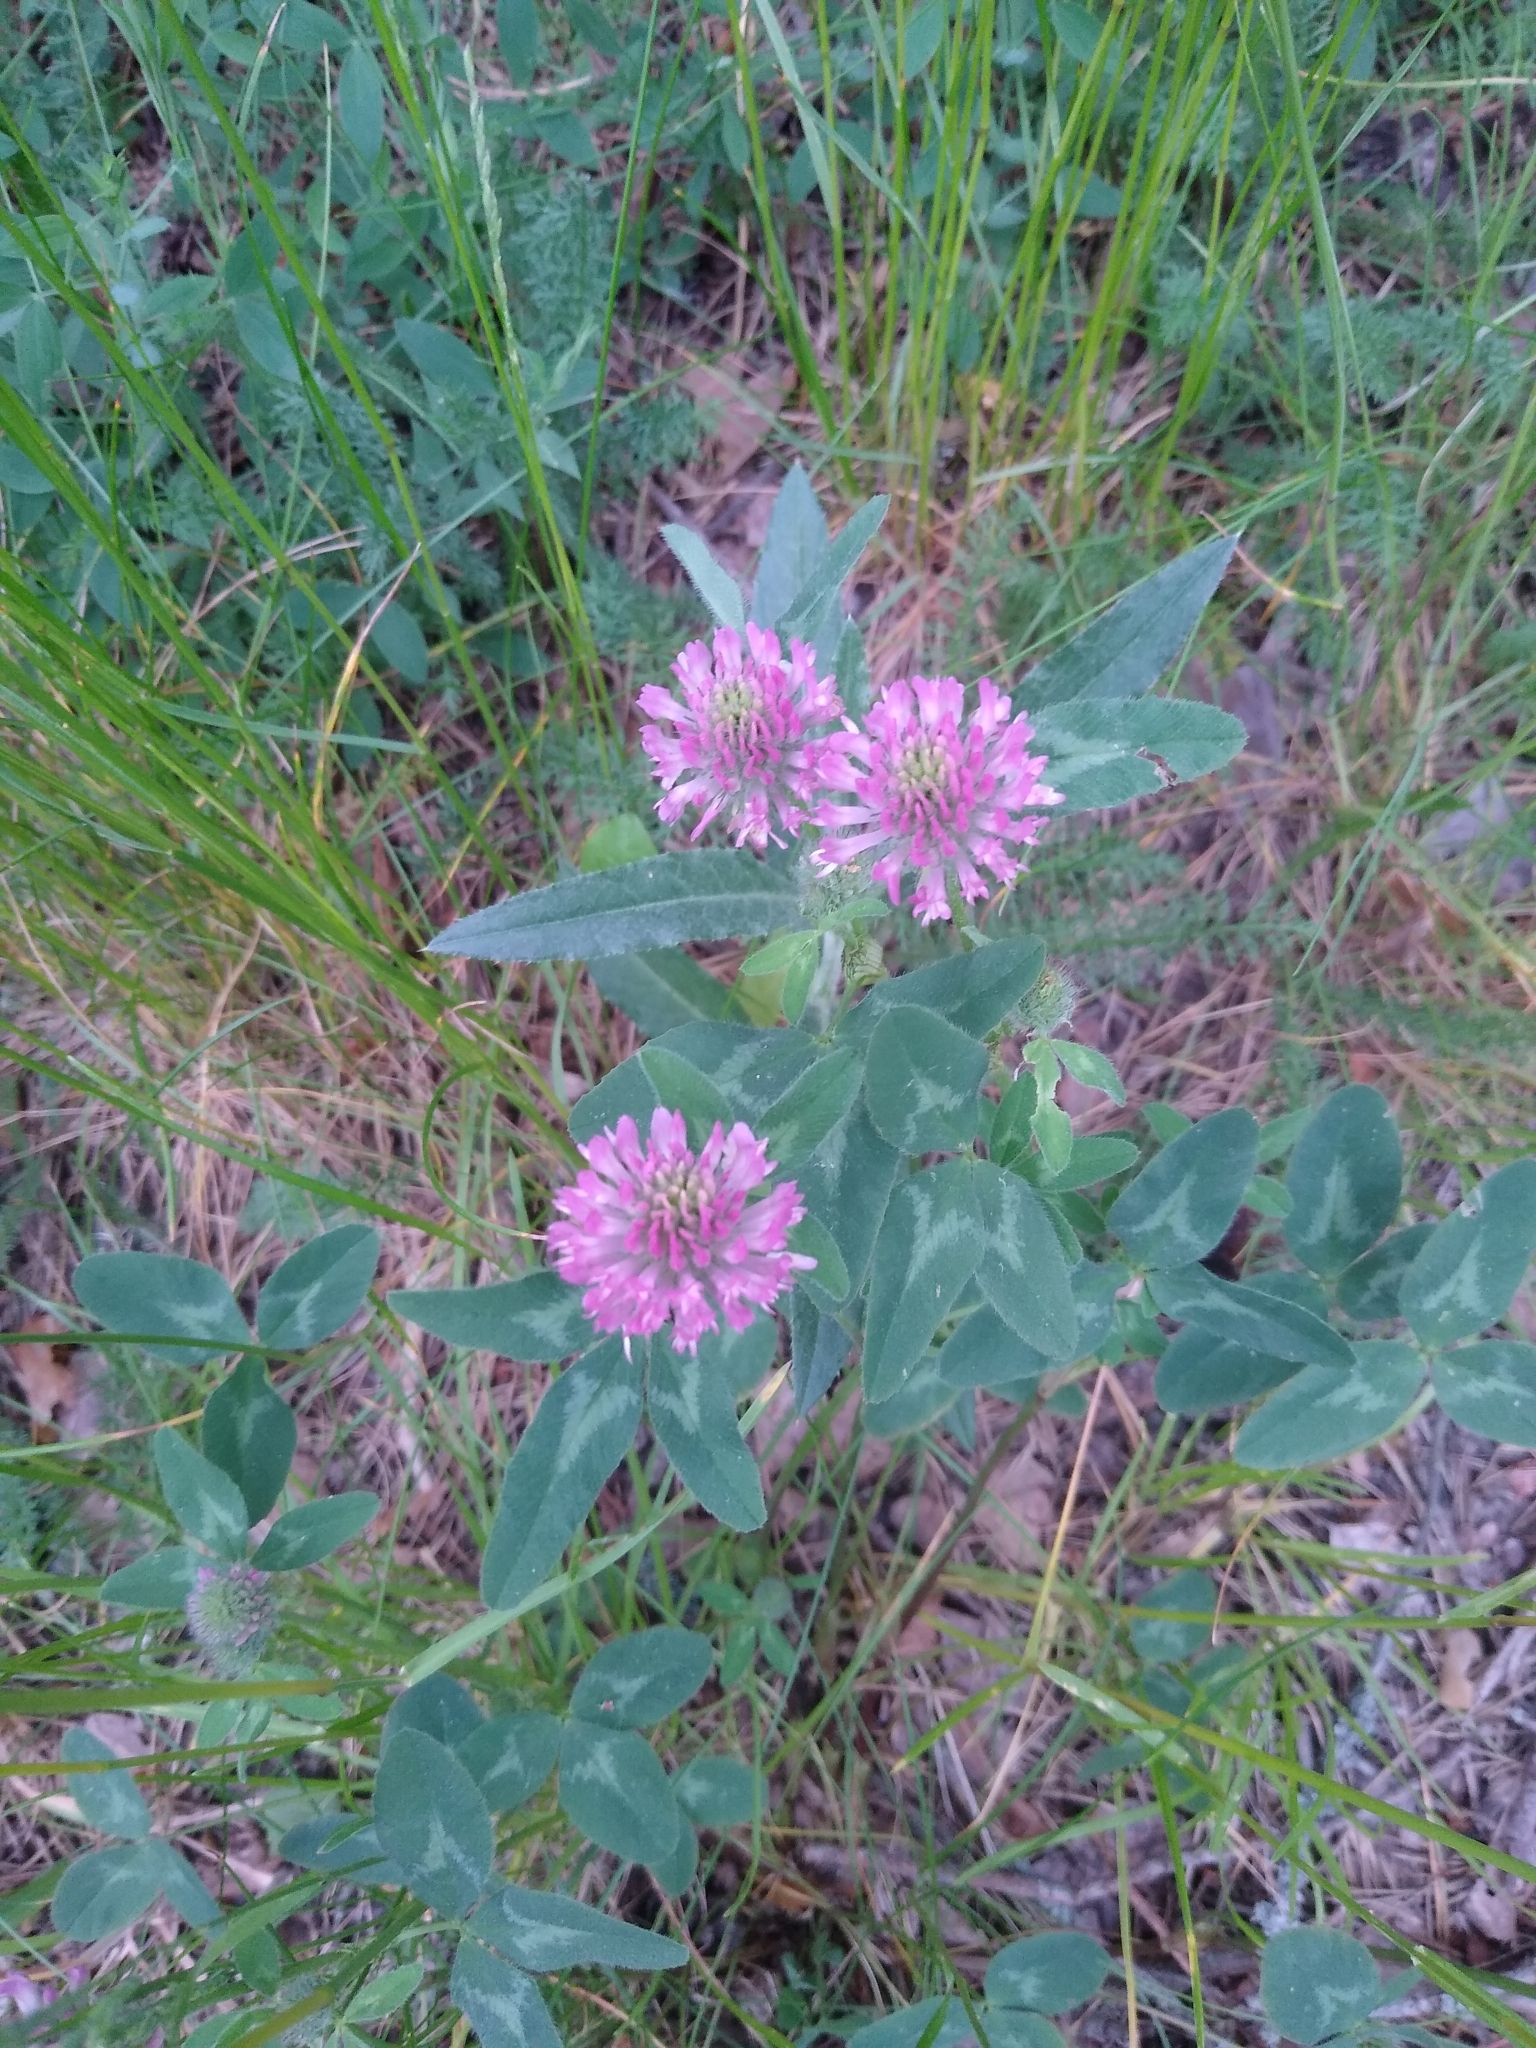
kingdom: Plantae
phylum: Tracheophyta
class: Magnoliopsida
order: Fabales
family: Fabaceae
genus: Trifolium
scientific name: Trifolium pratense
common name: Red clover
